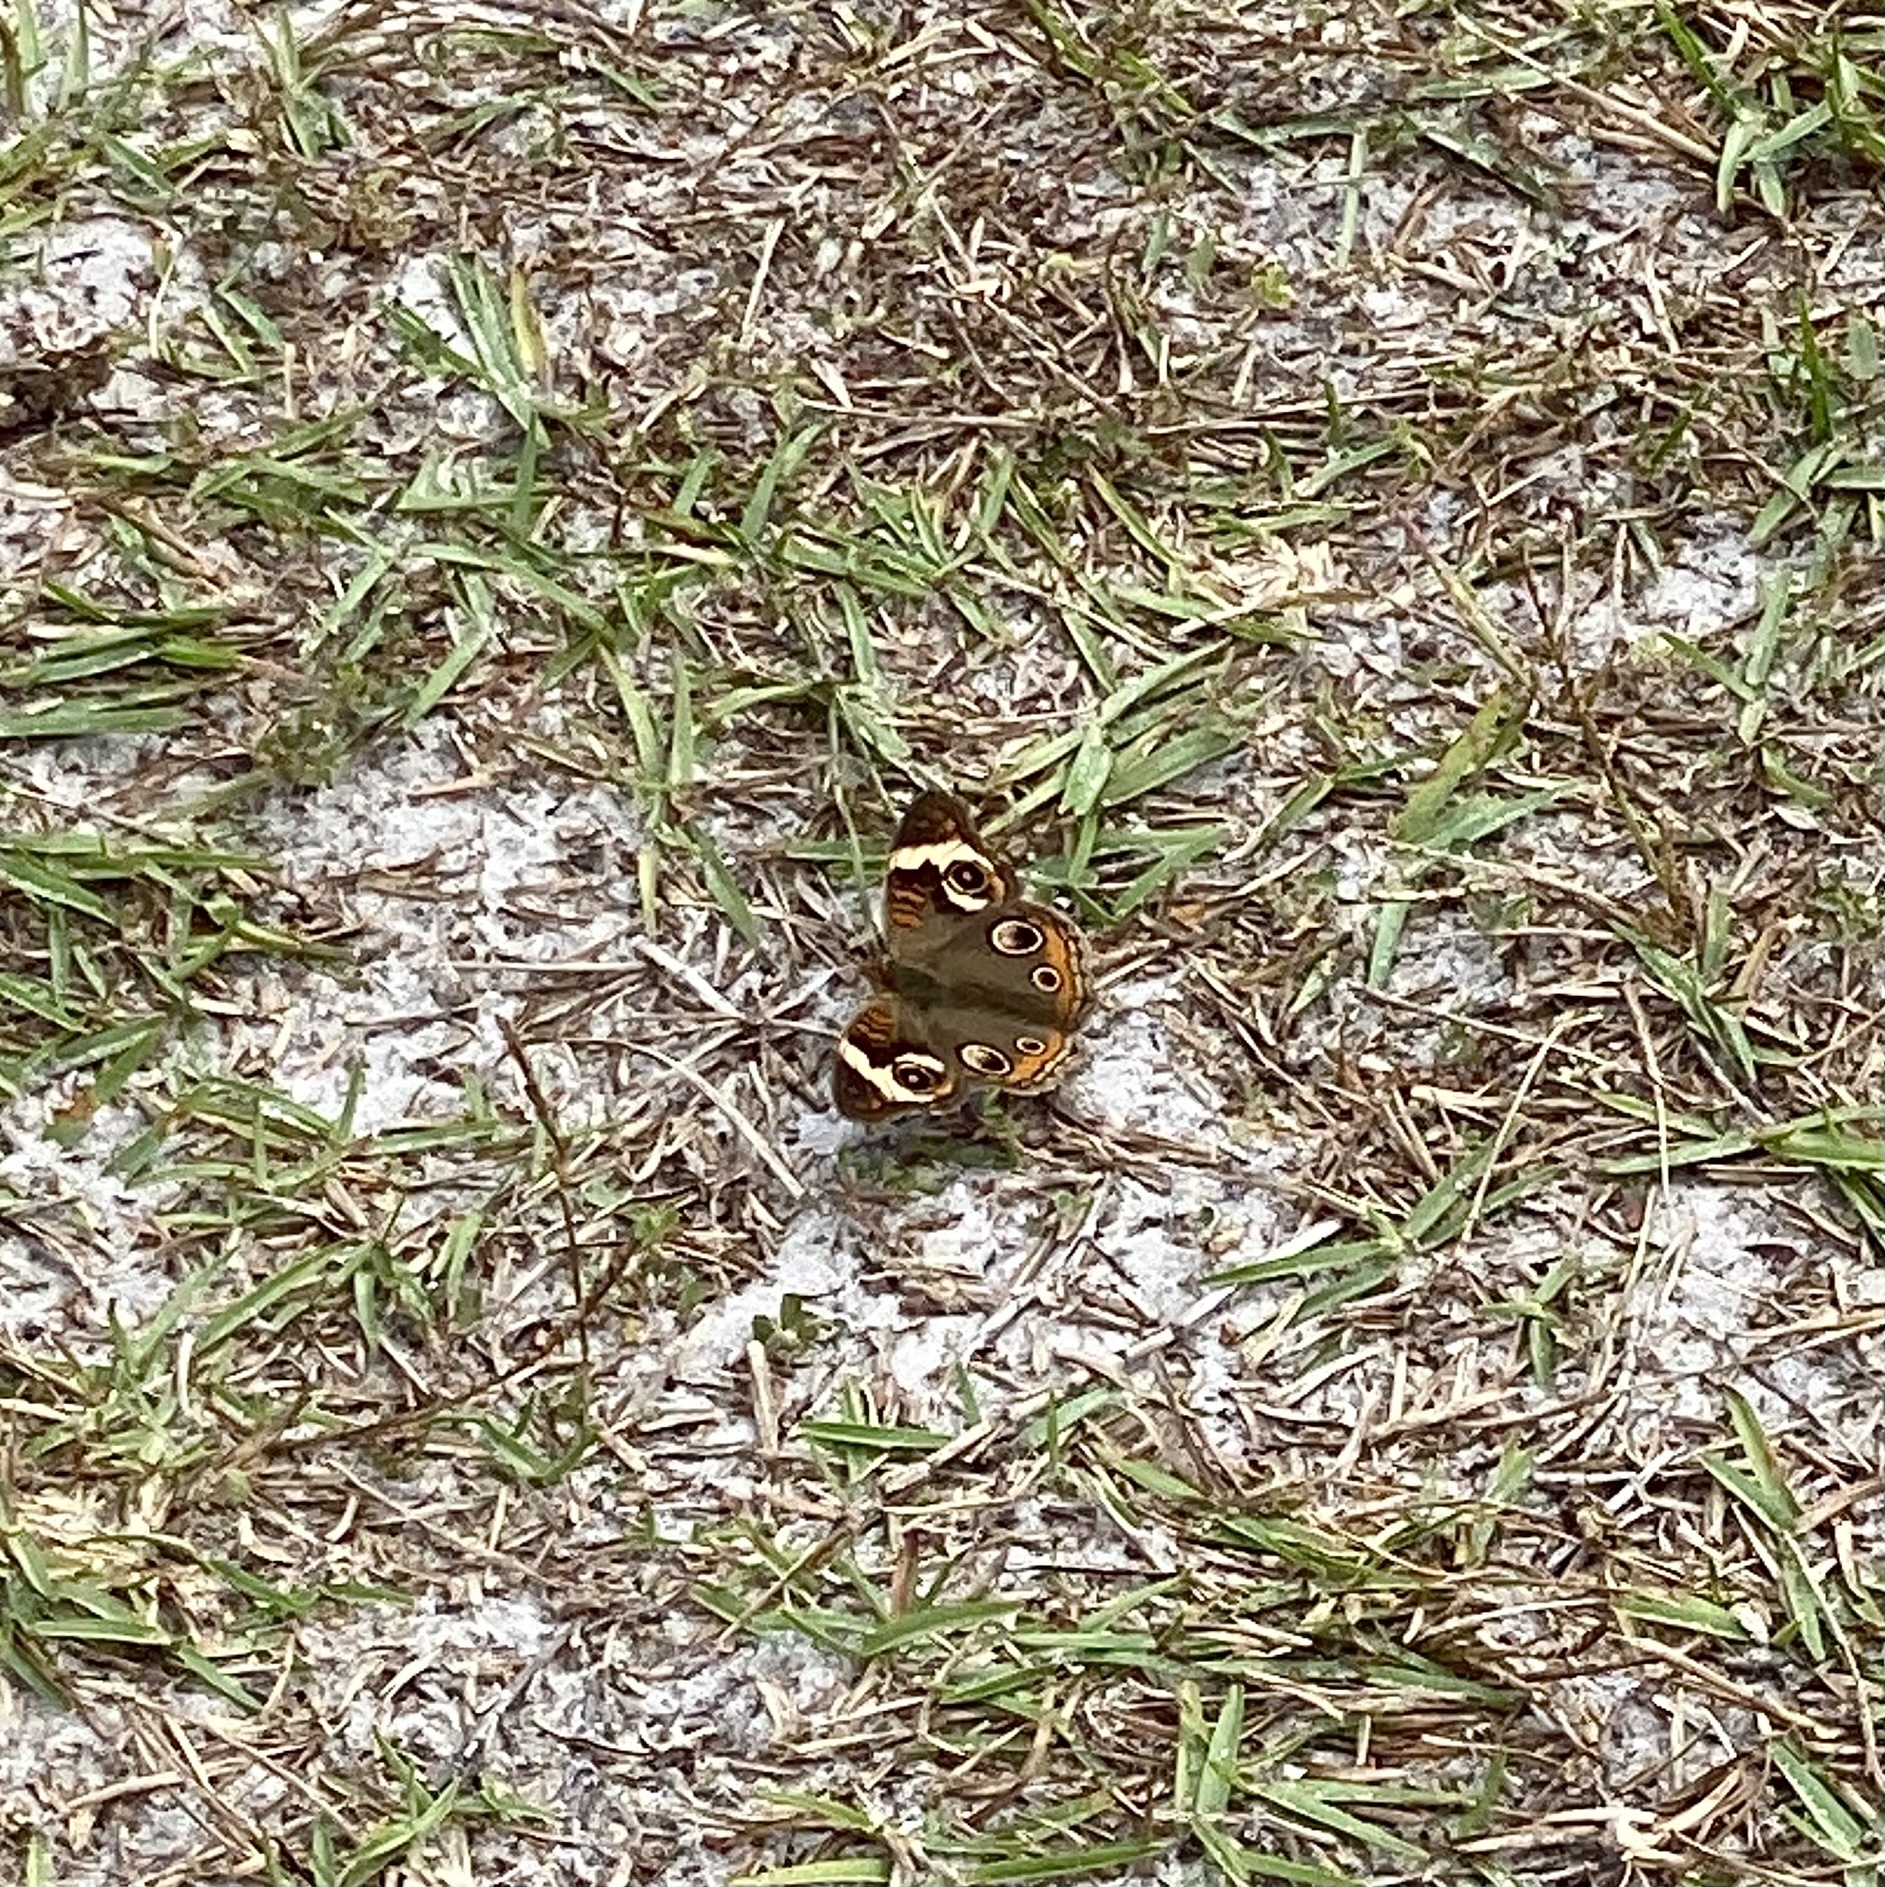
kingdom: Animalia
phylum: Arthropoda
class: Insecta
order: Lepidoptera
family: Nymphalidae
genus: Junonia
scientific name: Junonia coenia
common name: Common buckeye
